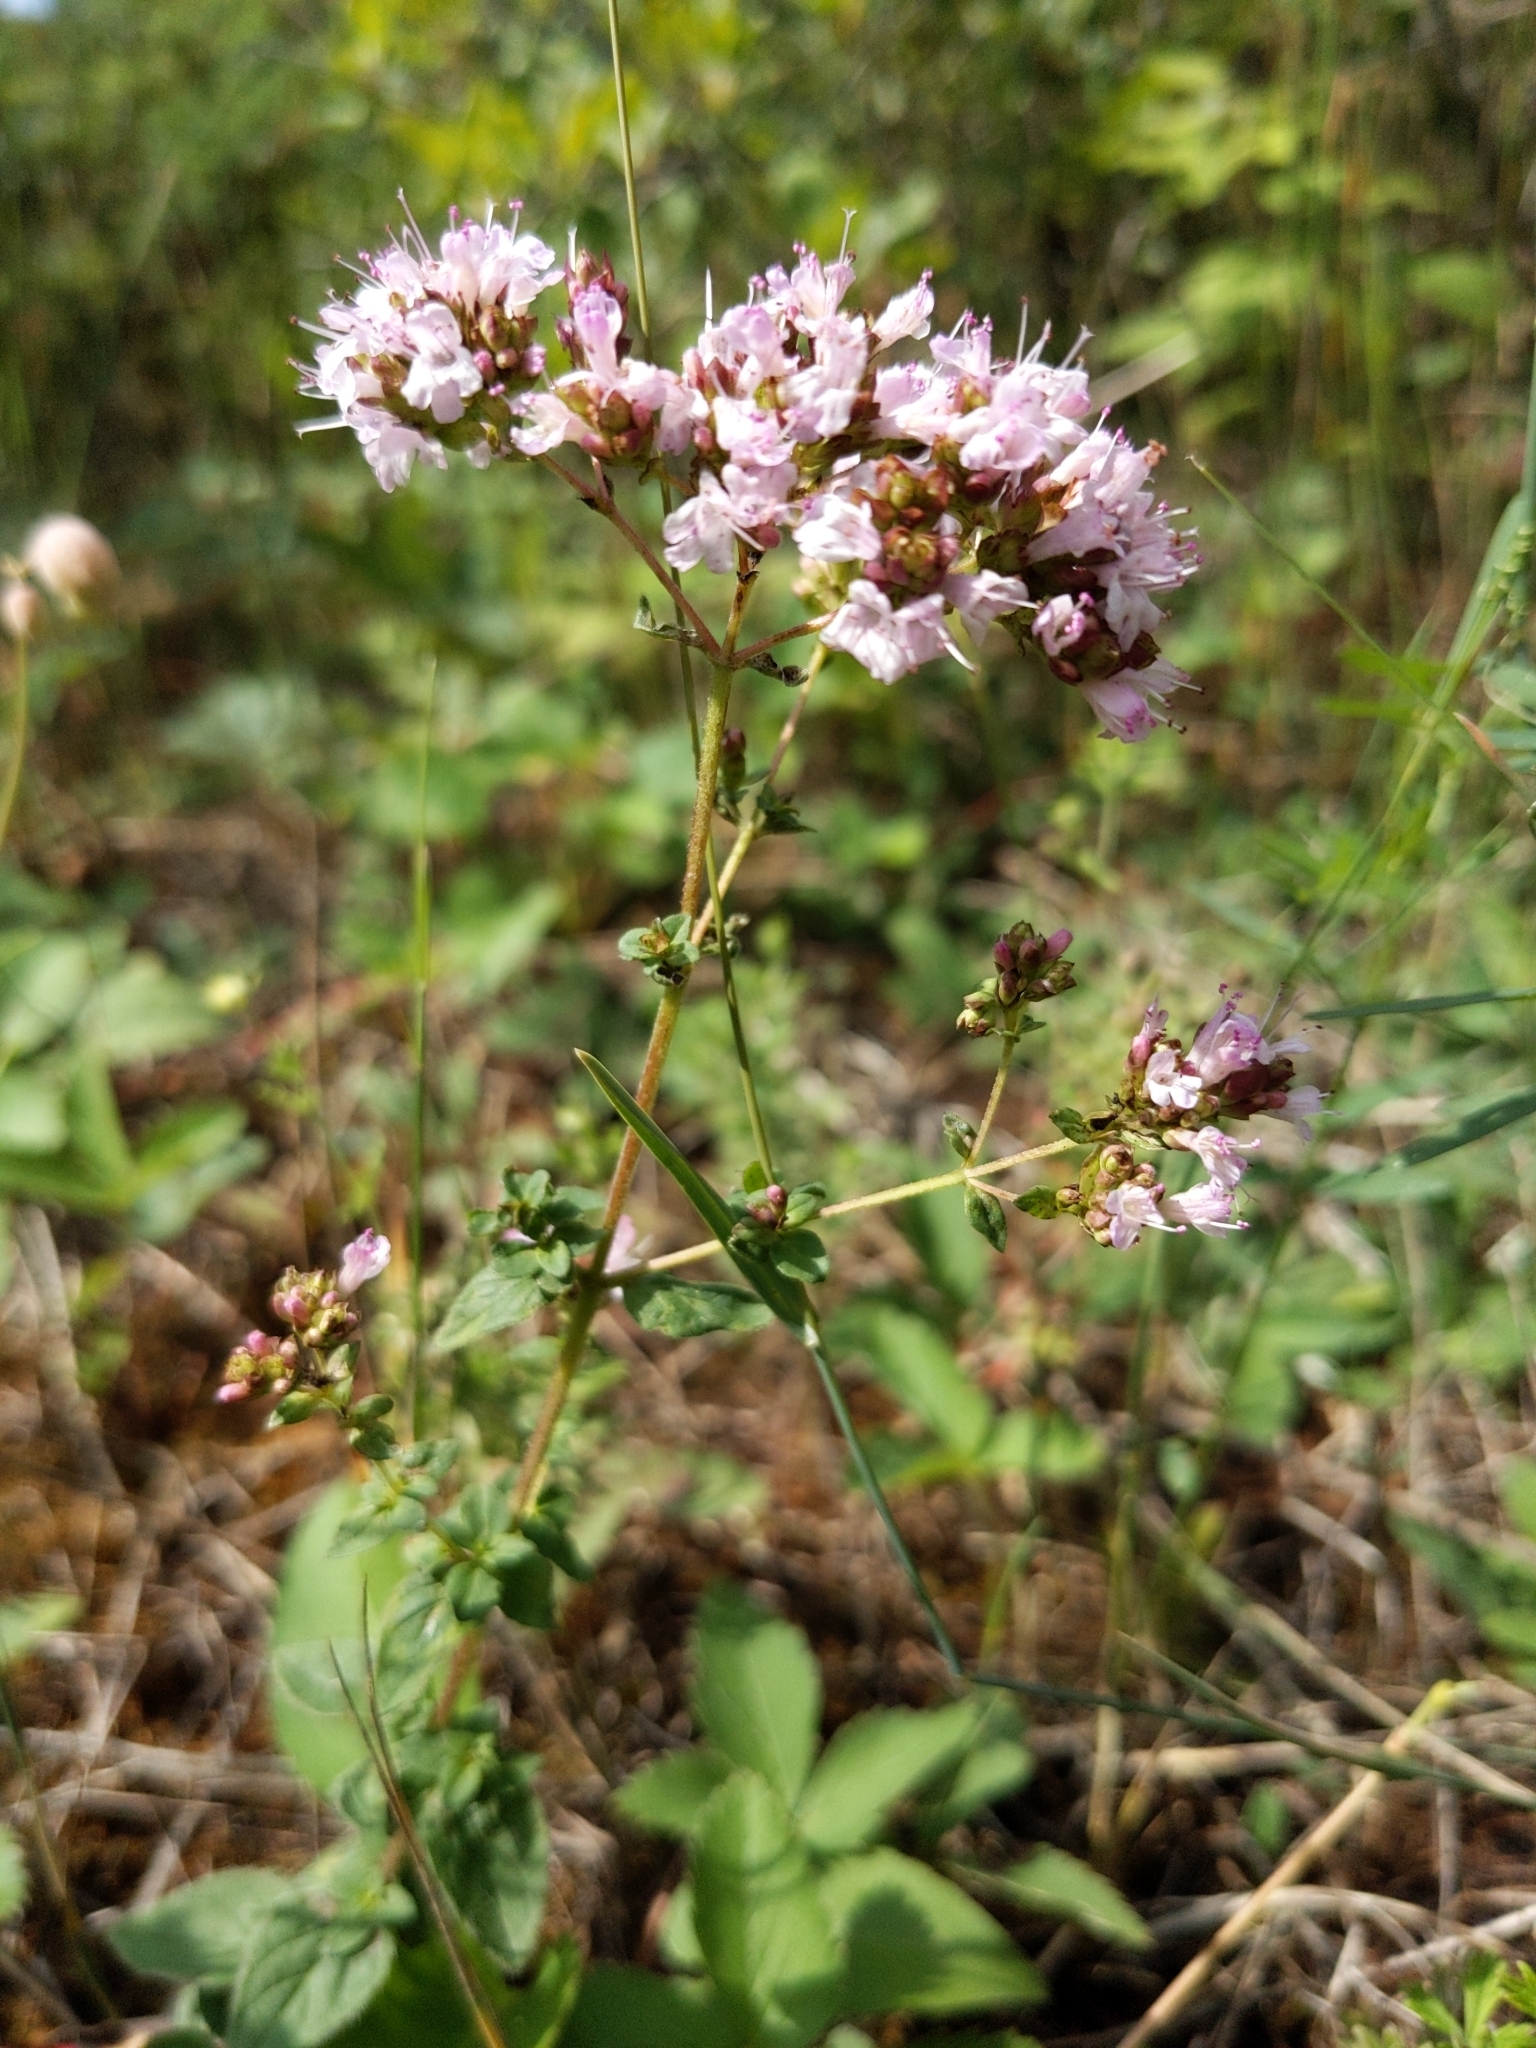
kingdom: Plantae
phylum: Tracheophyta
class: Magnoliopsida
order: Lamiales
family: Lamiaceae
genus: Origanum
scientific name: Origanum vulgare
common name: Wild marjoram
